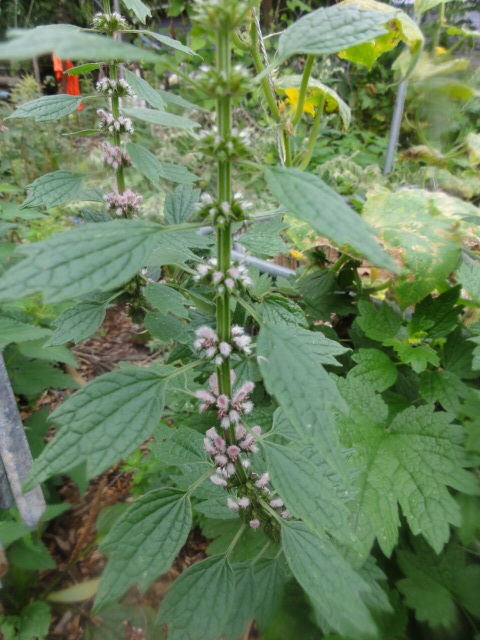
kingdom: Plantae
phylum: Tracheophyta
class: Magnoliopsida
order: Lamiales
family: Lamiaceae
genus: Leonurus
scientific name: Leonurus cardiaca
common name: Motherwort
